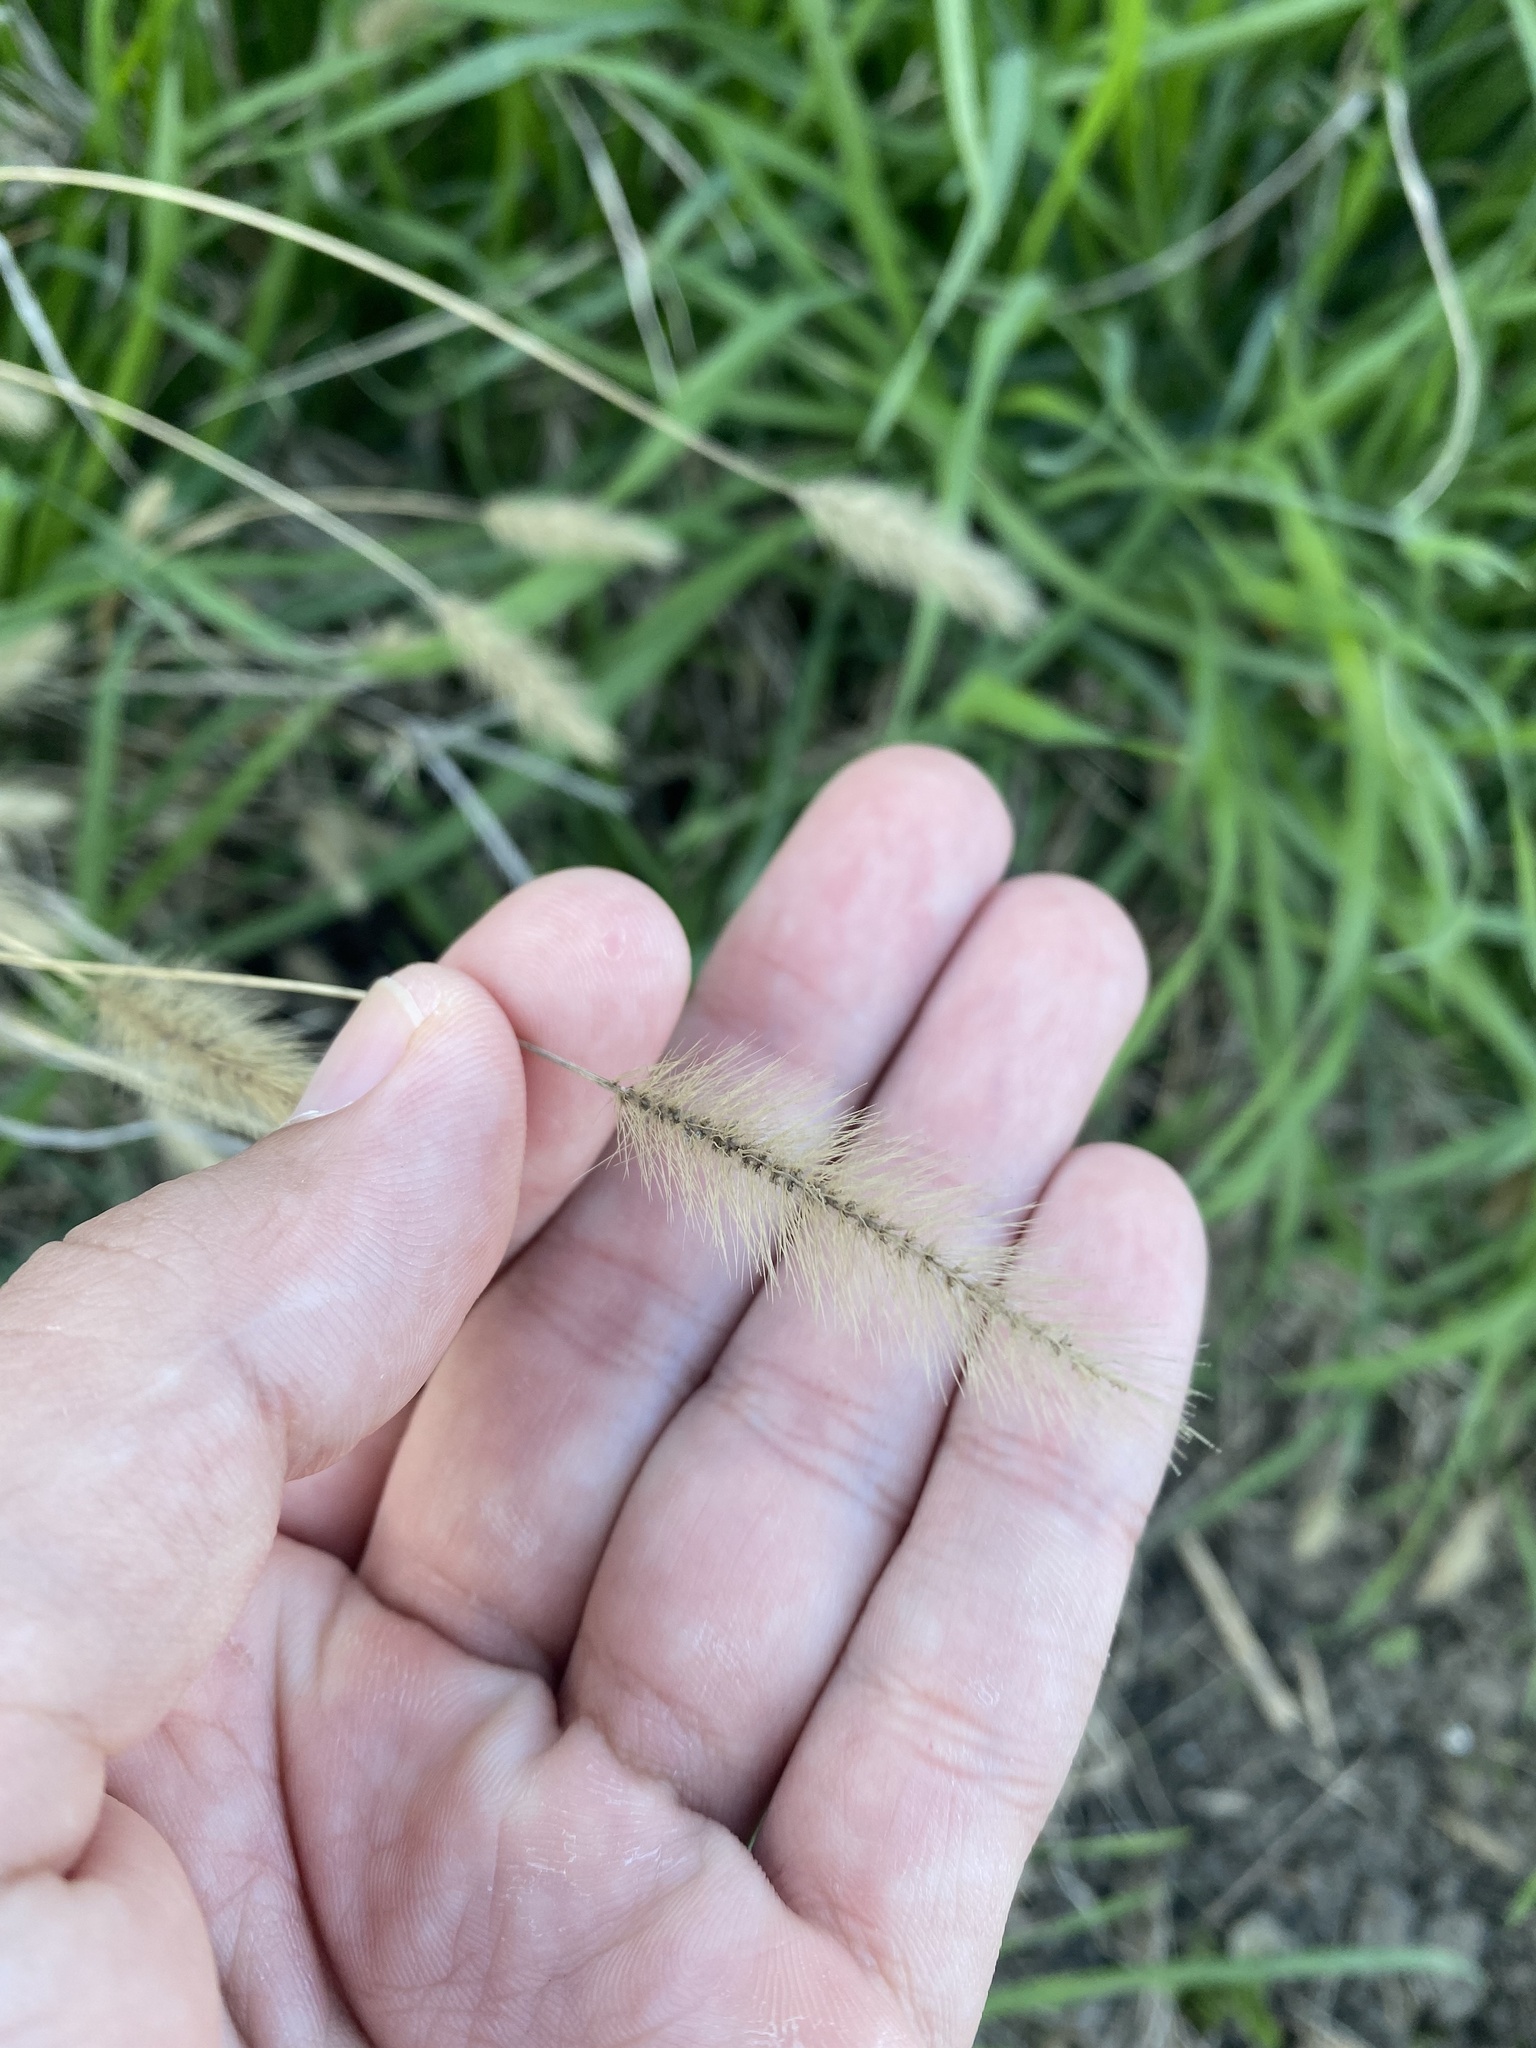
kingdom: Plantae
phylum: Tracheophyta
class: Liliopsida
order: Poales
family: Poaceae
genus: Setaria
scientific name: Setaria viridis
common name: Green bristlegrass
